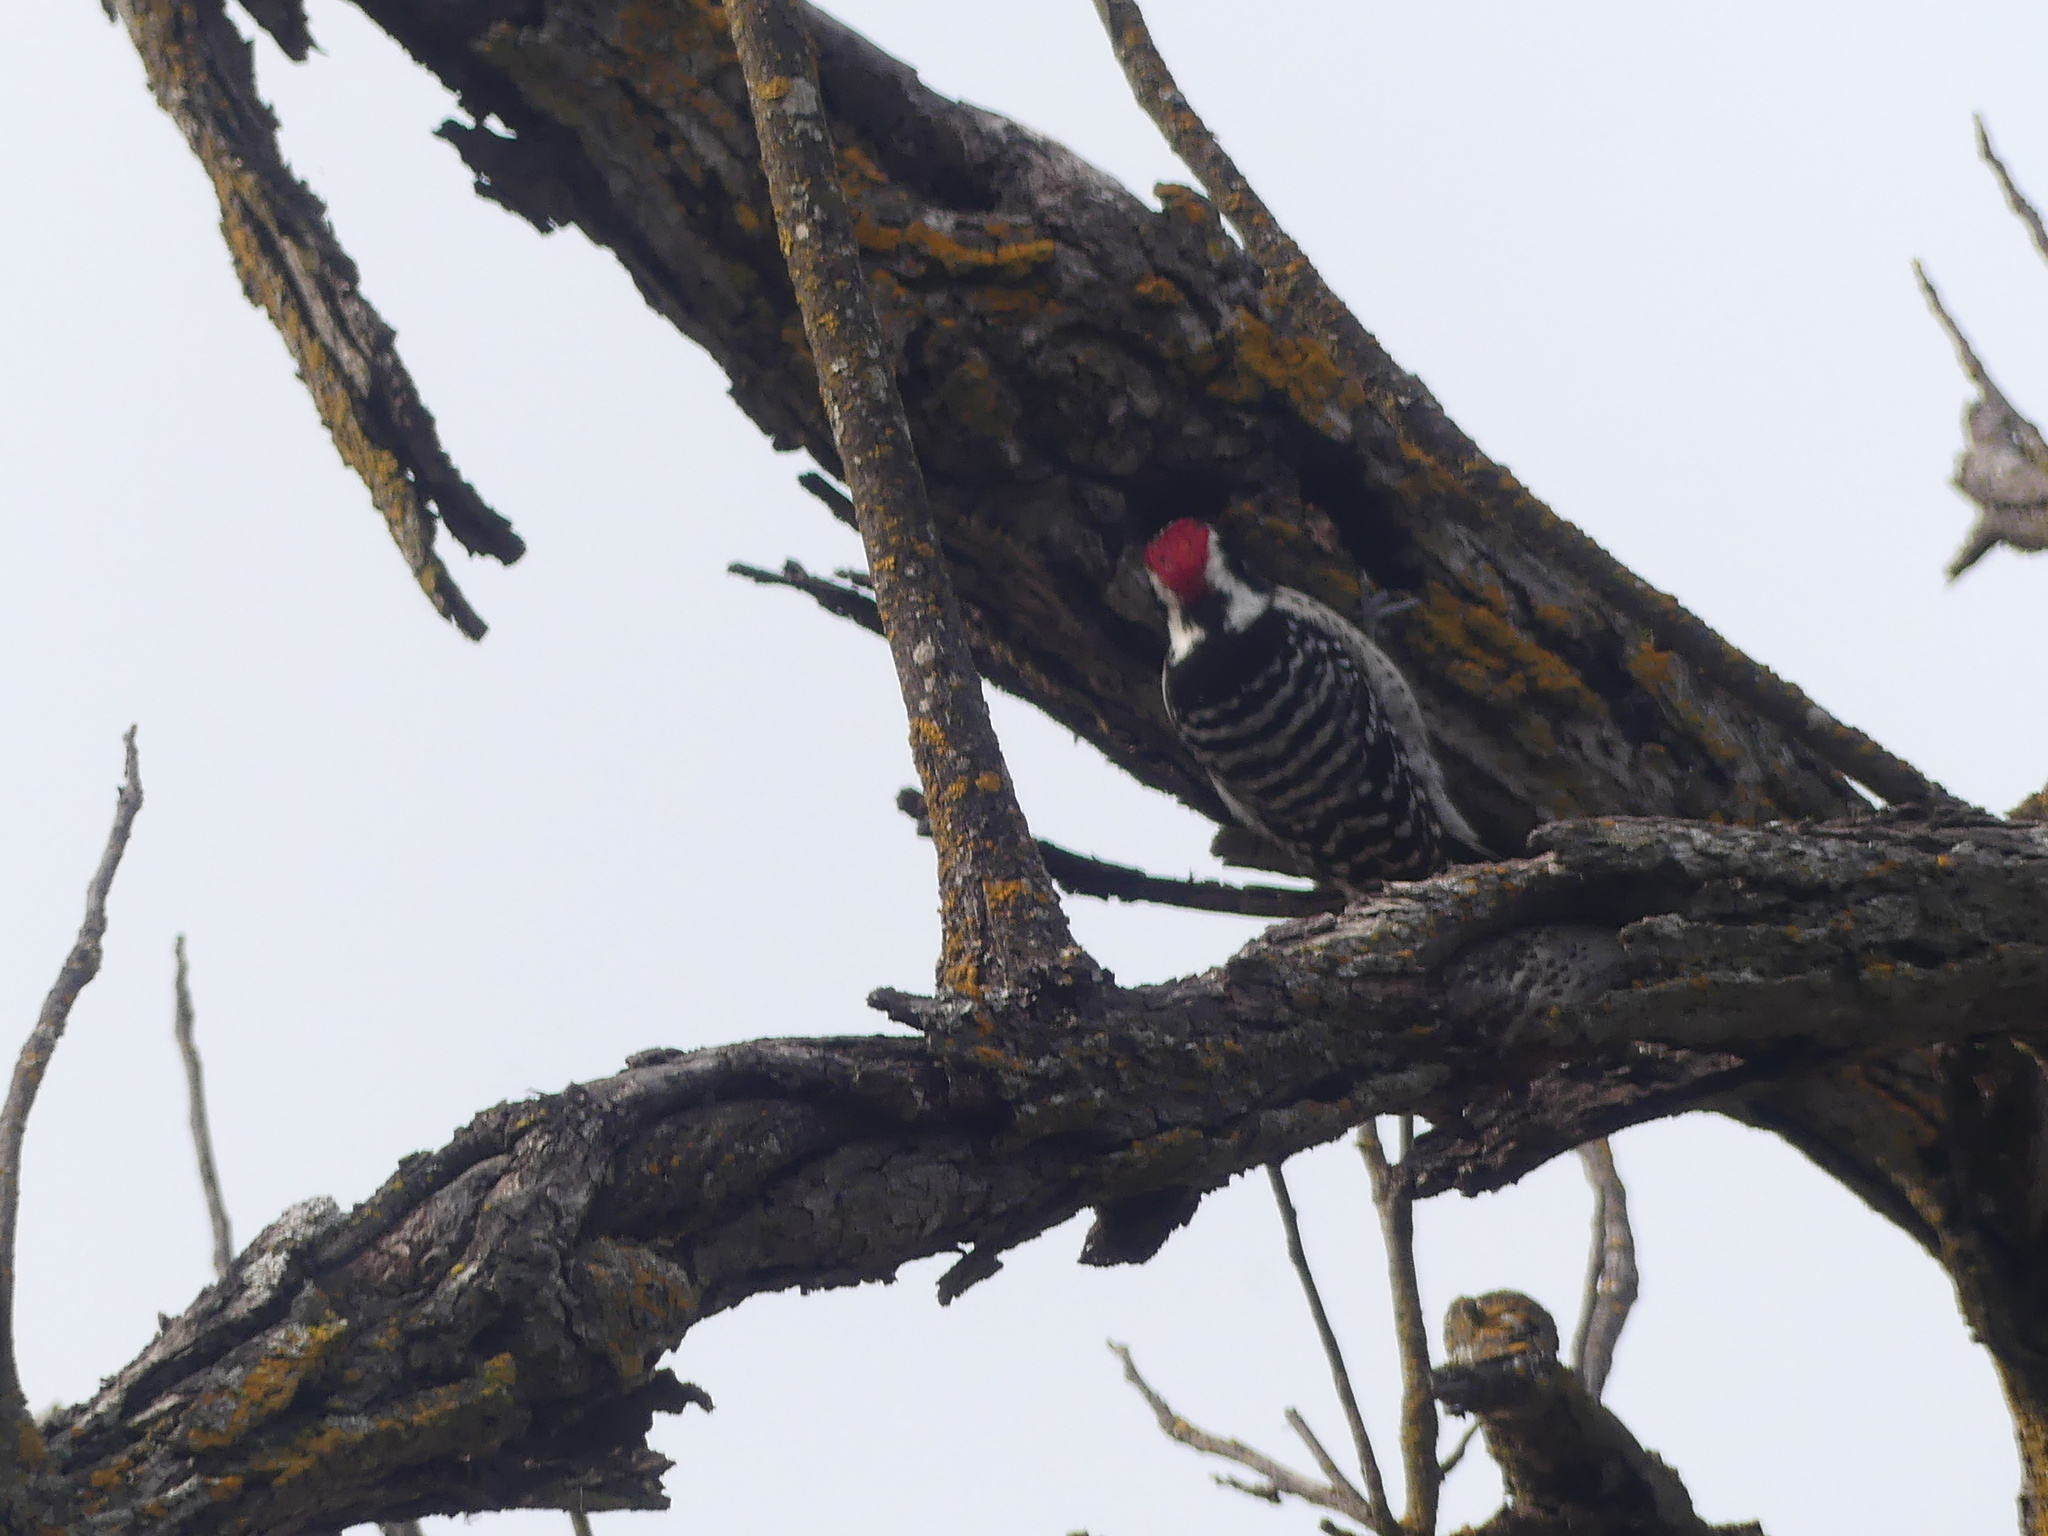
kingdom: Animalia
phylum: Chordata
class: Aves
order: Piciformes
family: Picidae
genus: Dryobates
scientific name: Dryobates nuttallii
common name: Nuttall's woodpecker
